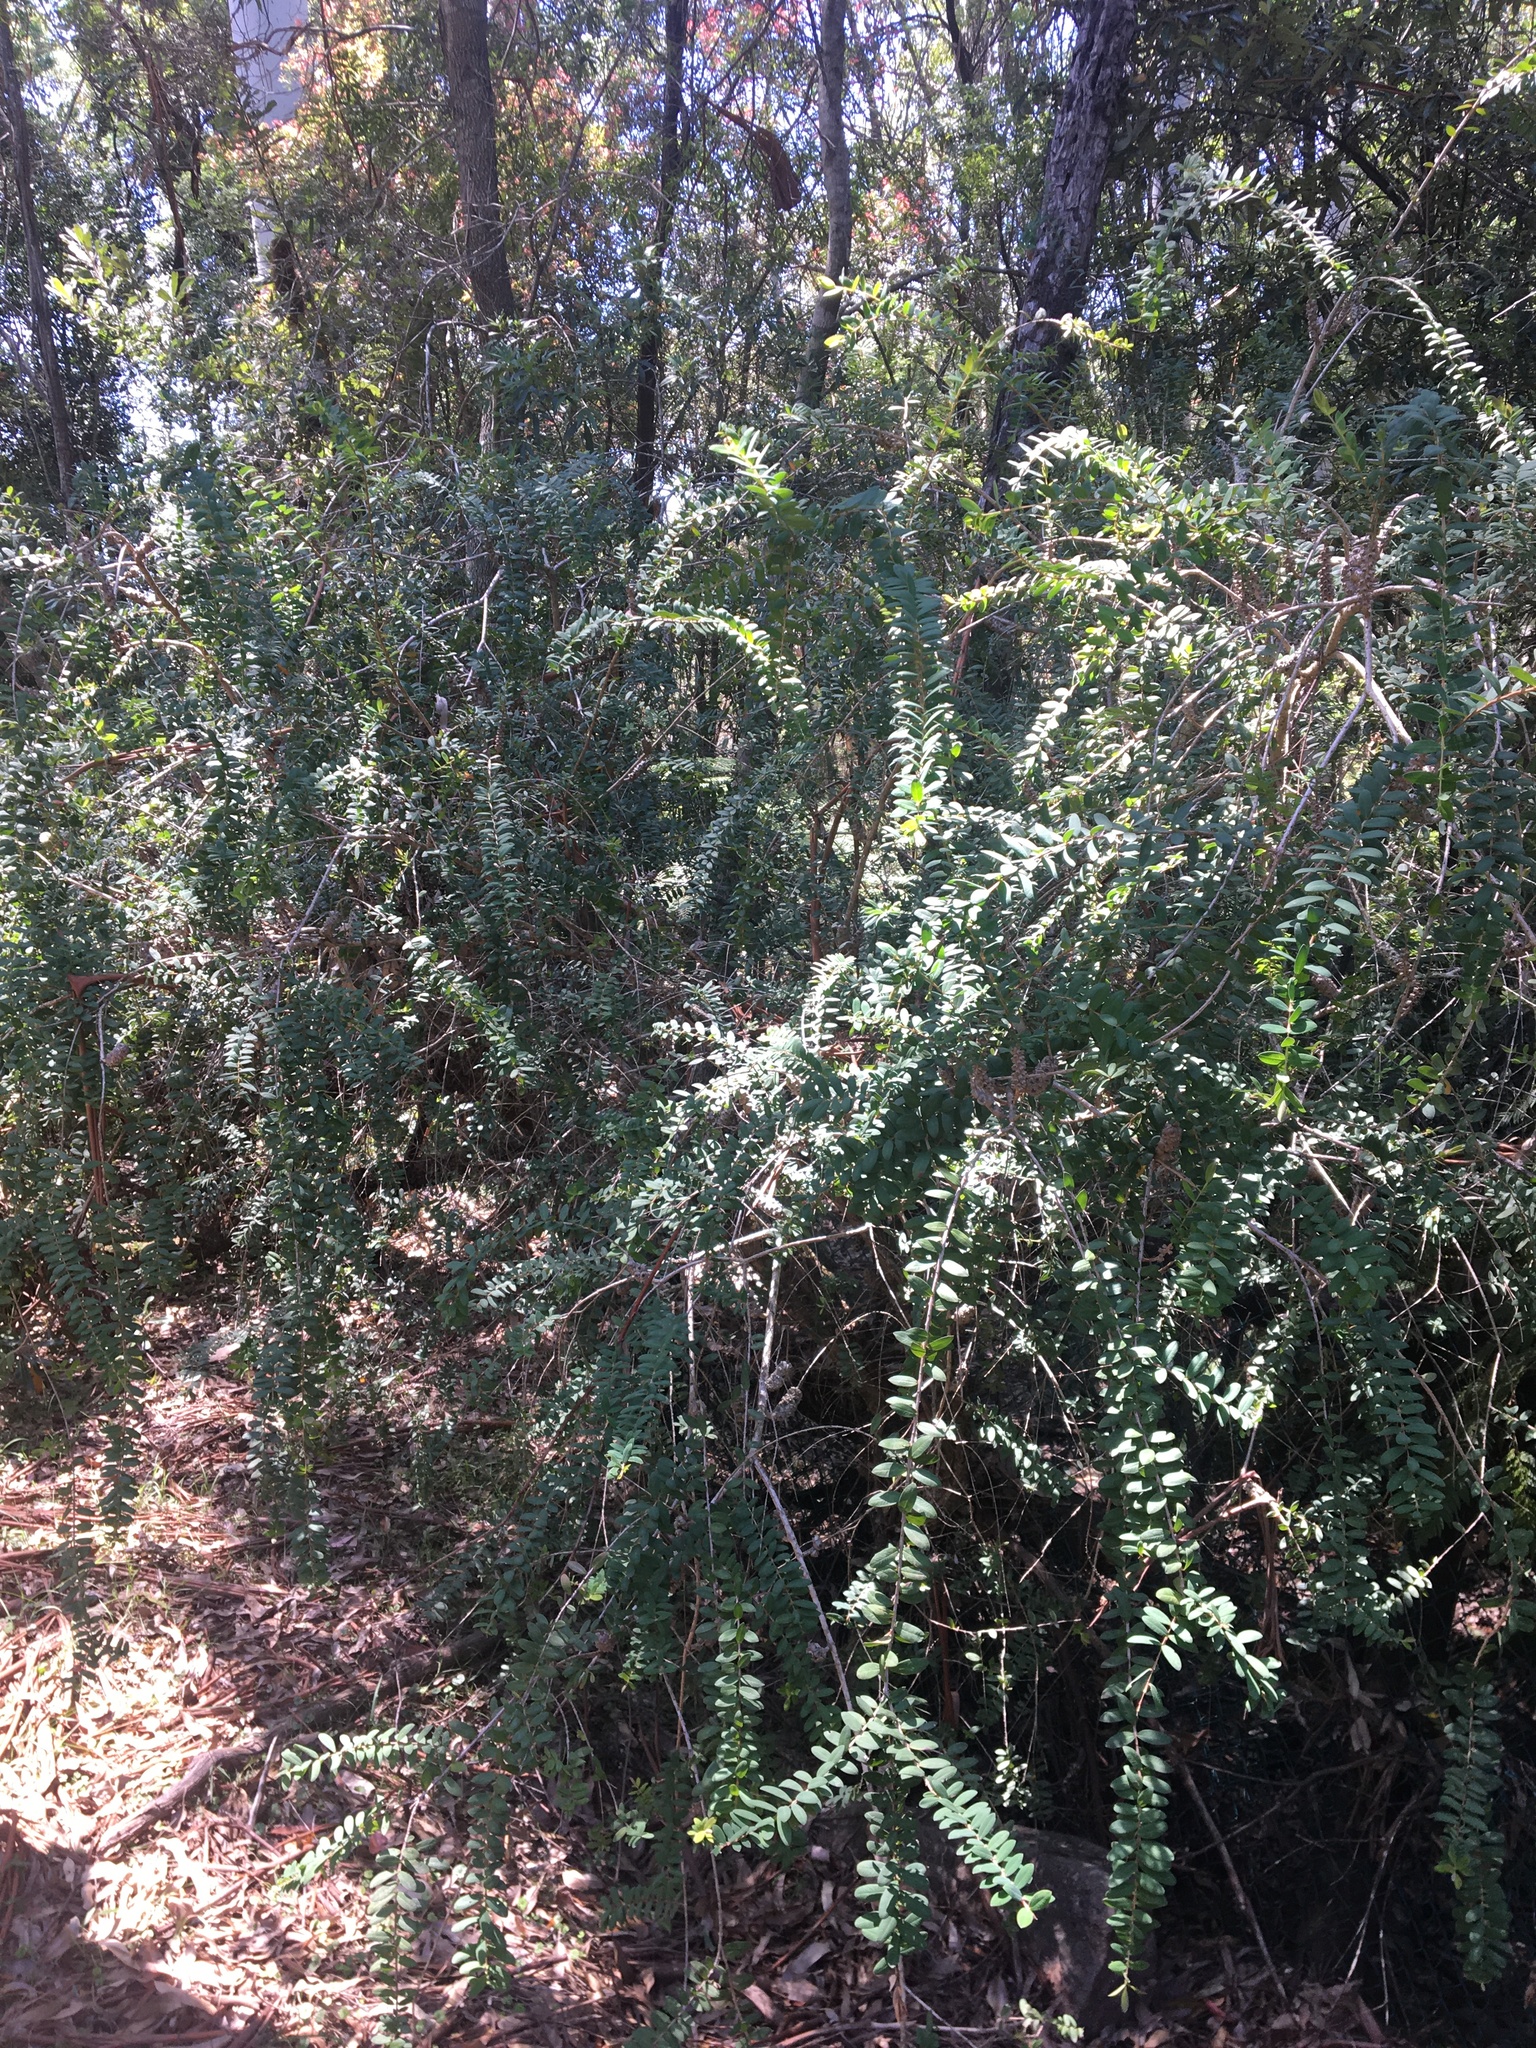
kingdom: Plantae
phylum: Tracheophyta
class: Magnoliopsida
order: Myrtales
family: Myrtaceae
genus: Melaleuca
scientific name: Melaleuca hypericifolia
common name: Red honey myrtle
